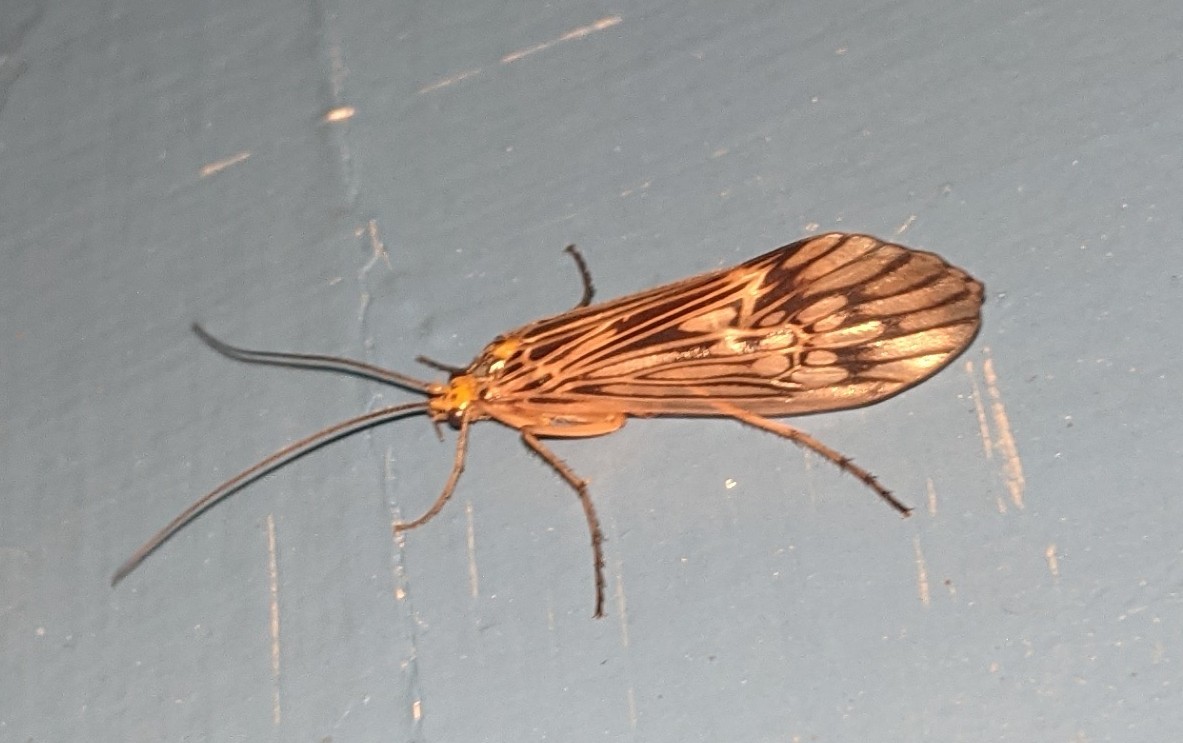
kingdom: Animalia
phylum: Arthropoda
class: Insecta
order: Trichoptera
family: Limnephilidae
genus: Hydatophylax
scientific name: Hydatophylax argus
